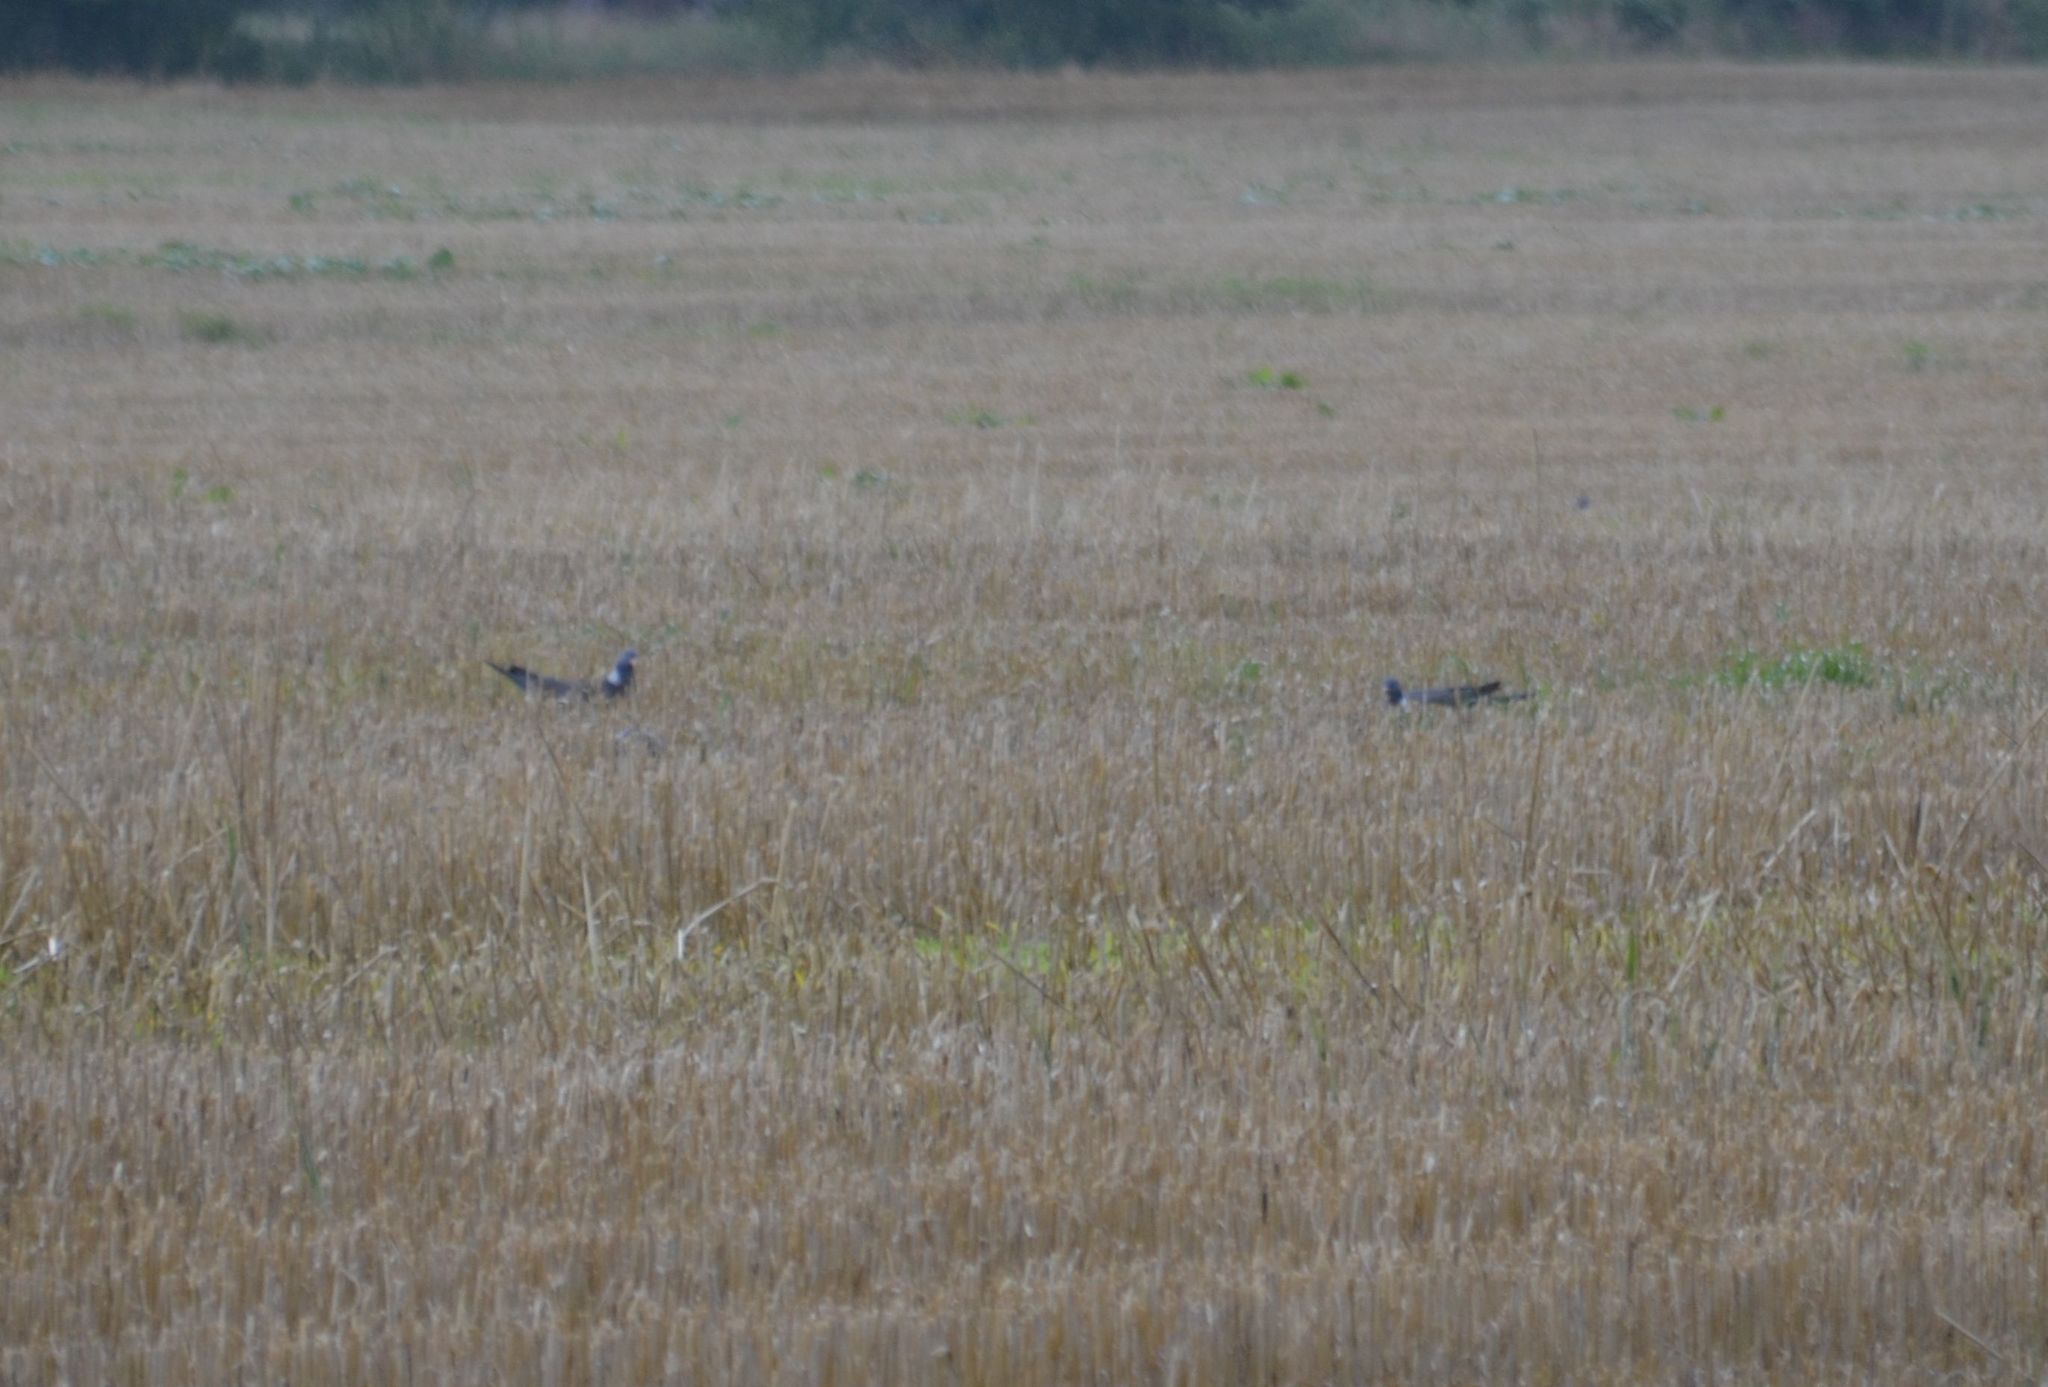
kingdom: Animalia
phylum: Chordata
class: Aves
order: Columbiformes
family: Columbidae
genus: Columba
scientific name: Columba palumbus
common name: Common wood pigeon
